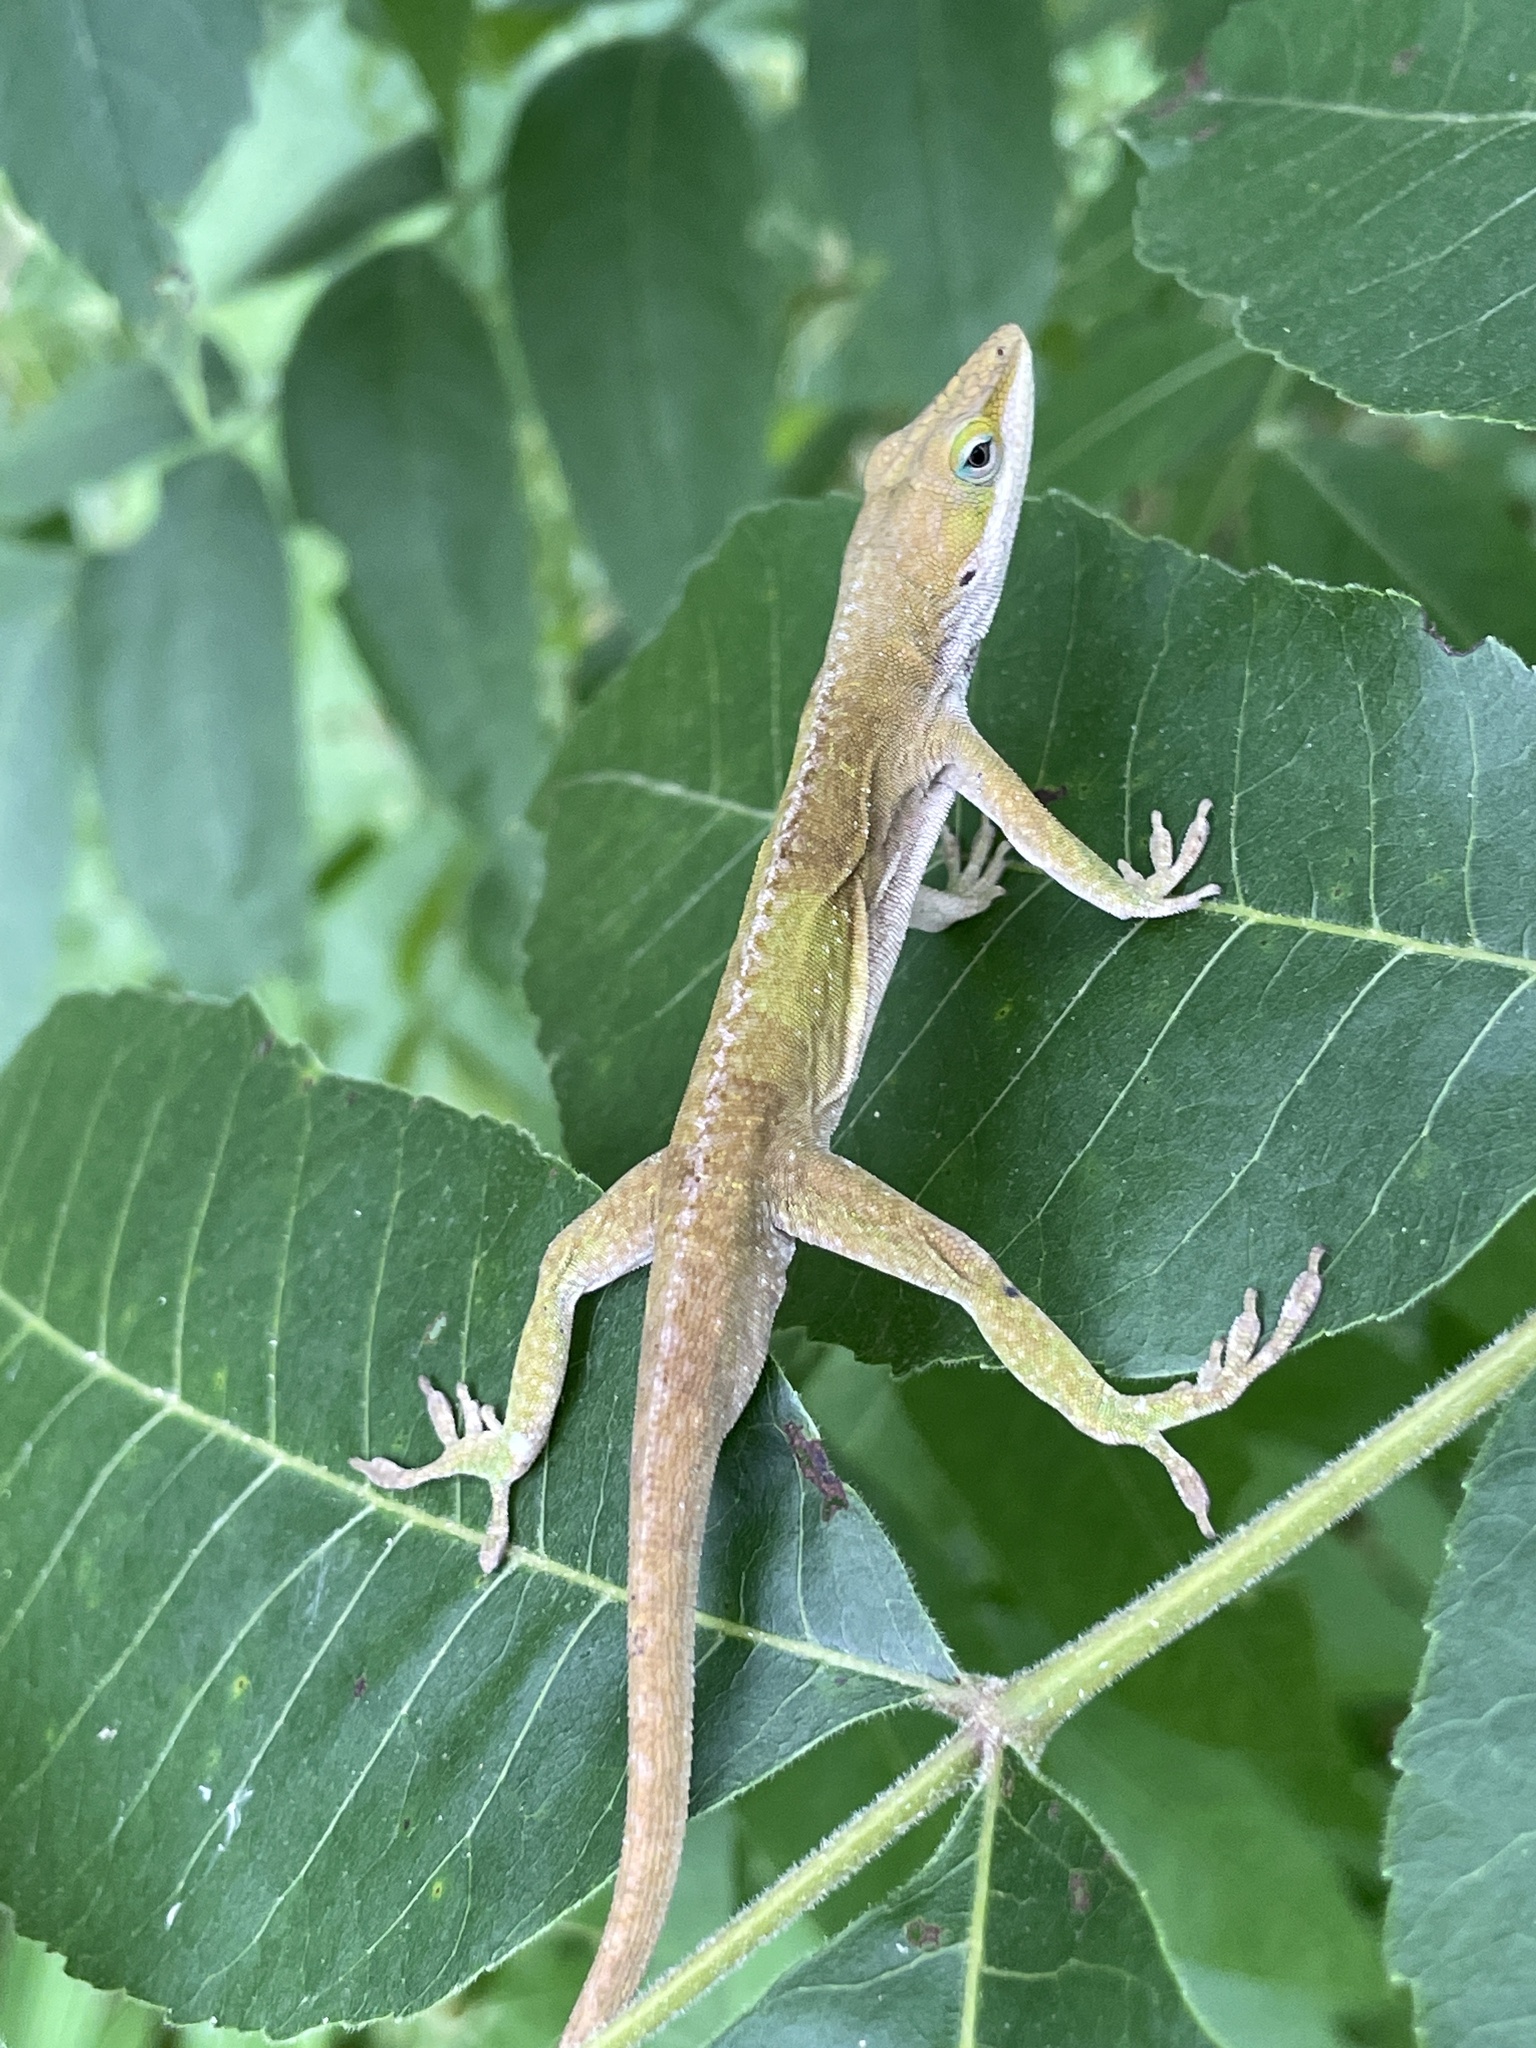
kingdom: Animalia
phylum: Chordata
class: Squamata
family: Dactyloidae
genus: Anolis
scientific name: Anolis carolinensis
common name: Green anole
